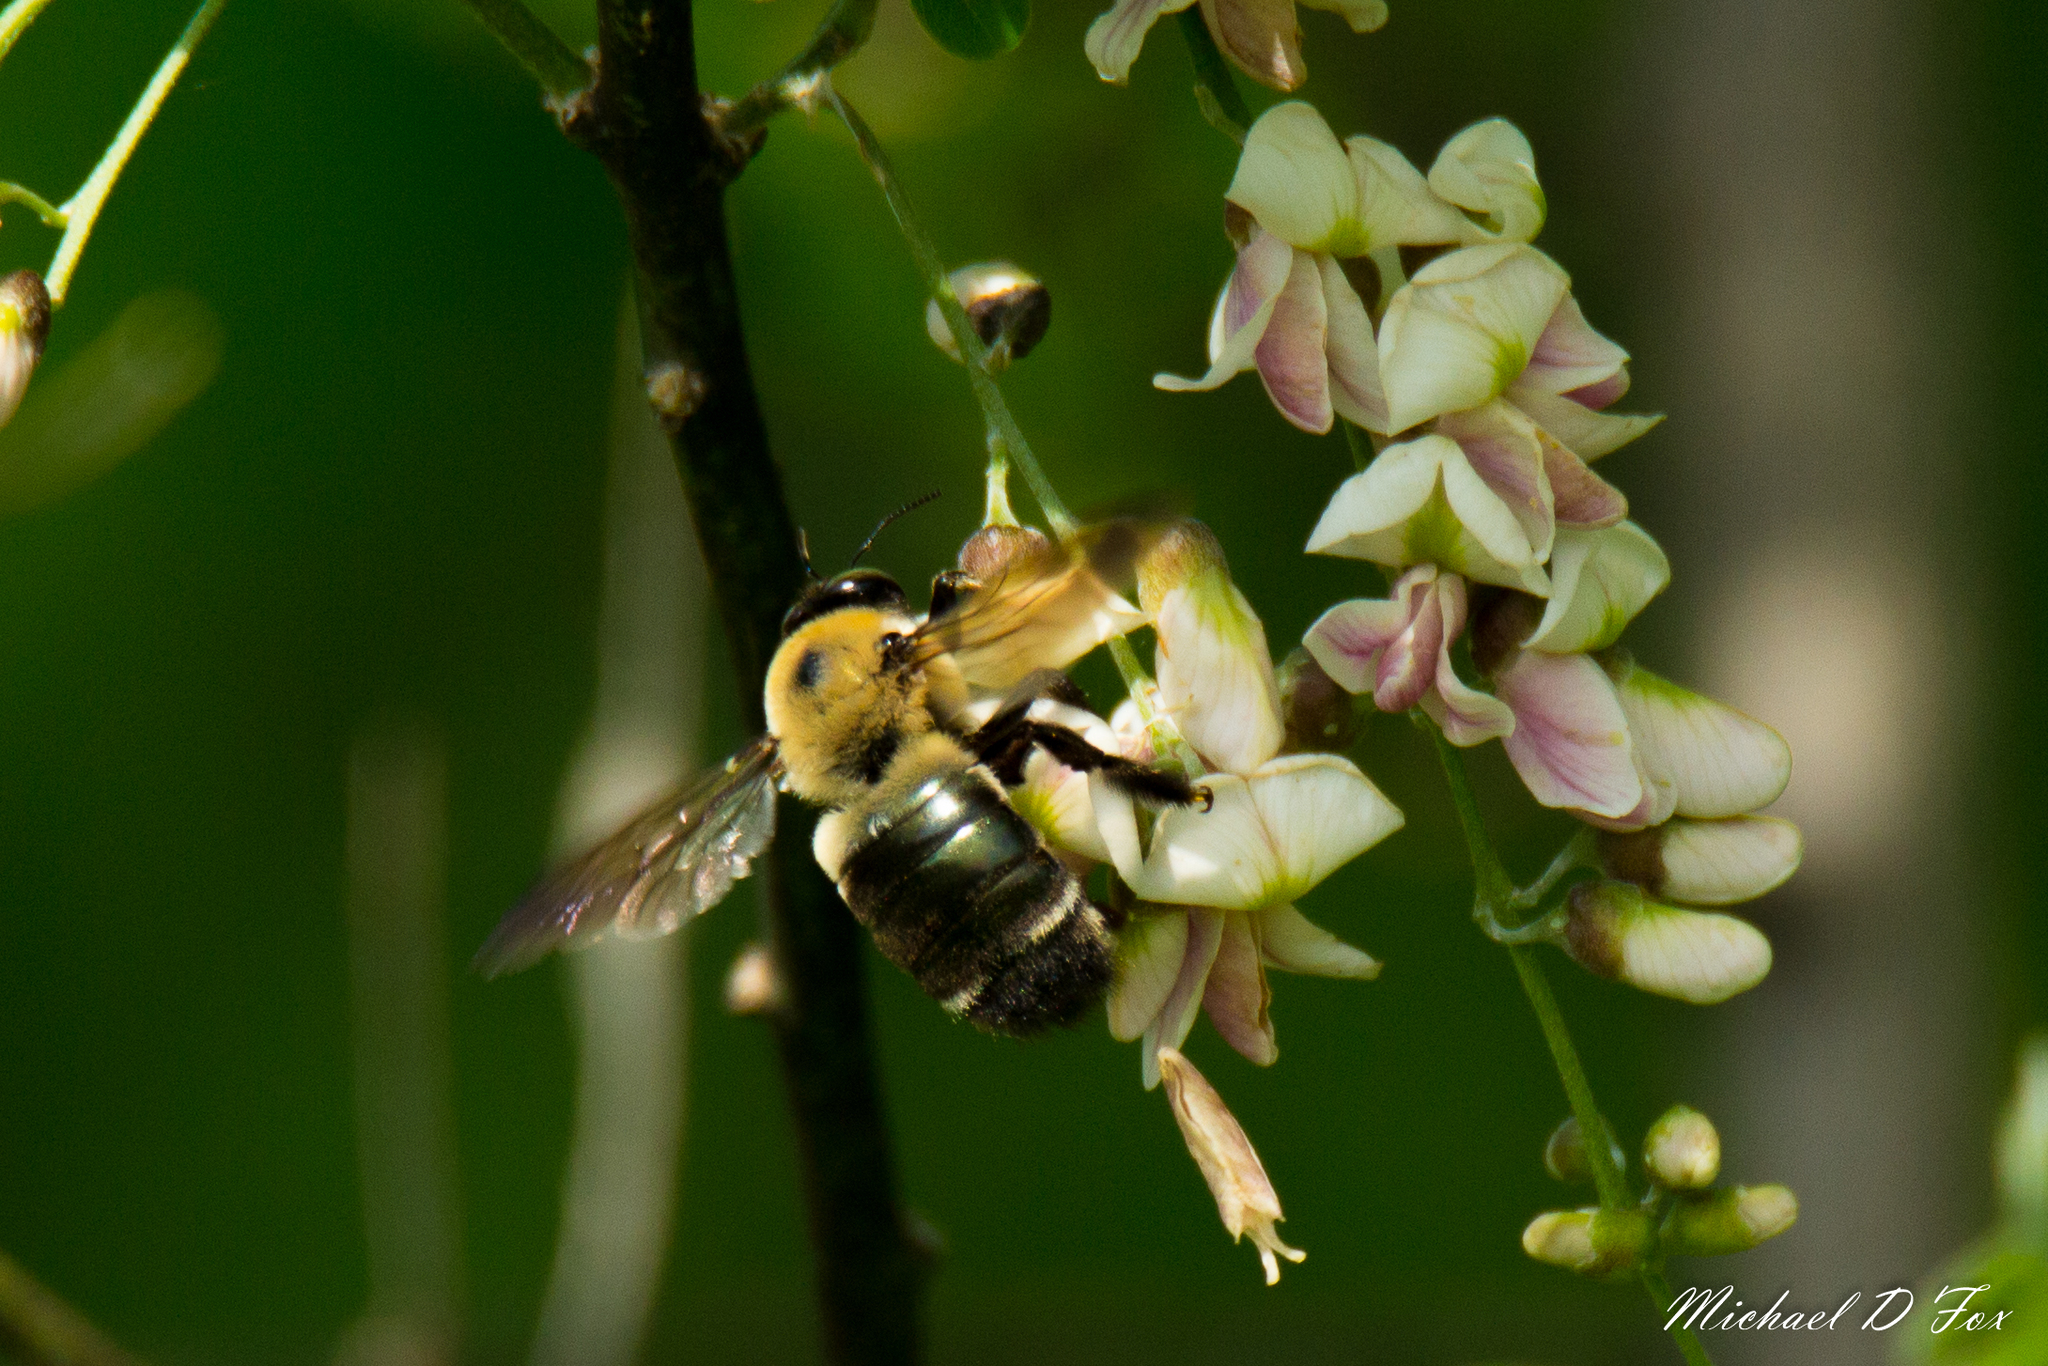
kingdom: Animalia
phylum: Arthropoda
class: Insecta
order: Hymenoptera
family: Apidae
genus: Xylocopa
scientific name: Xylocopa virginica
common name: Carpenter bee
